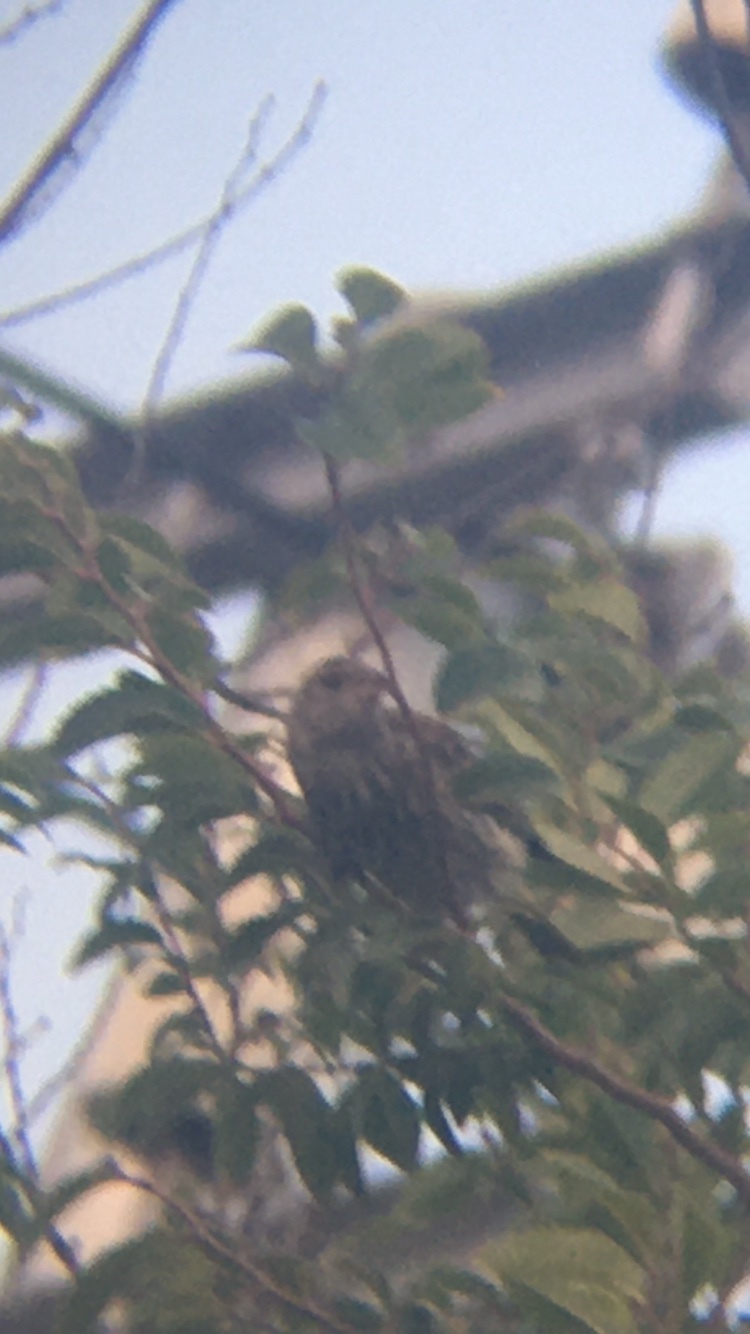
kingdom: Animalia
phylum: Chordata
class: Aves
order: Passeriformes
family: Passeridae
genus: Passer
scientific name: Passer domesticus
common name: House sparrow
